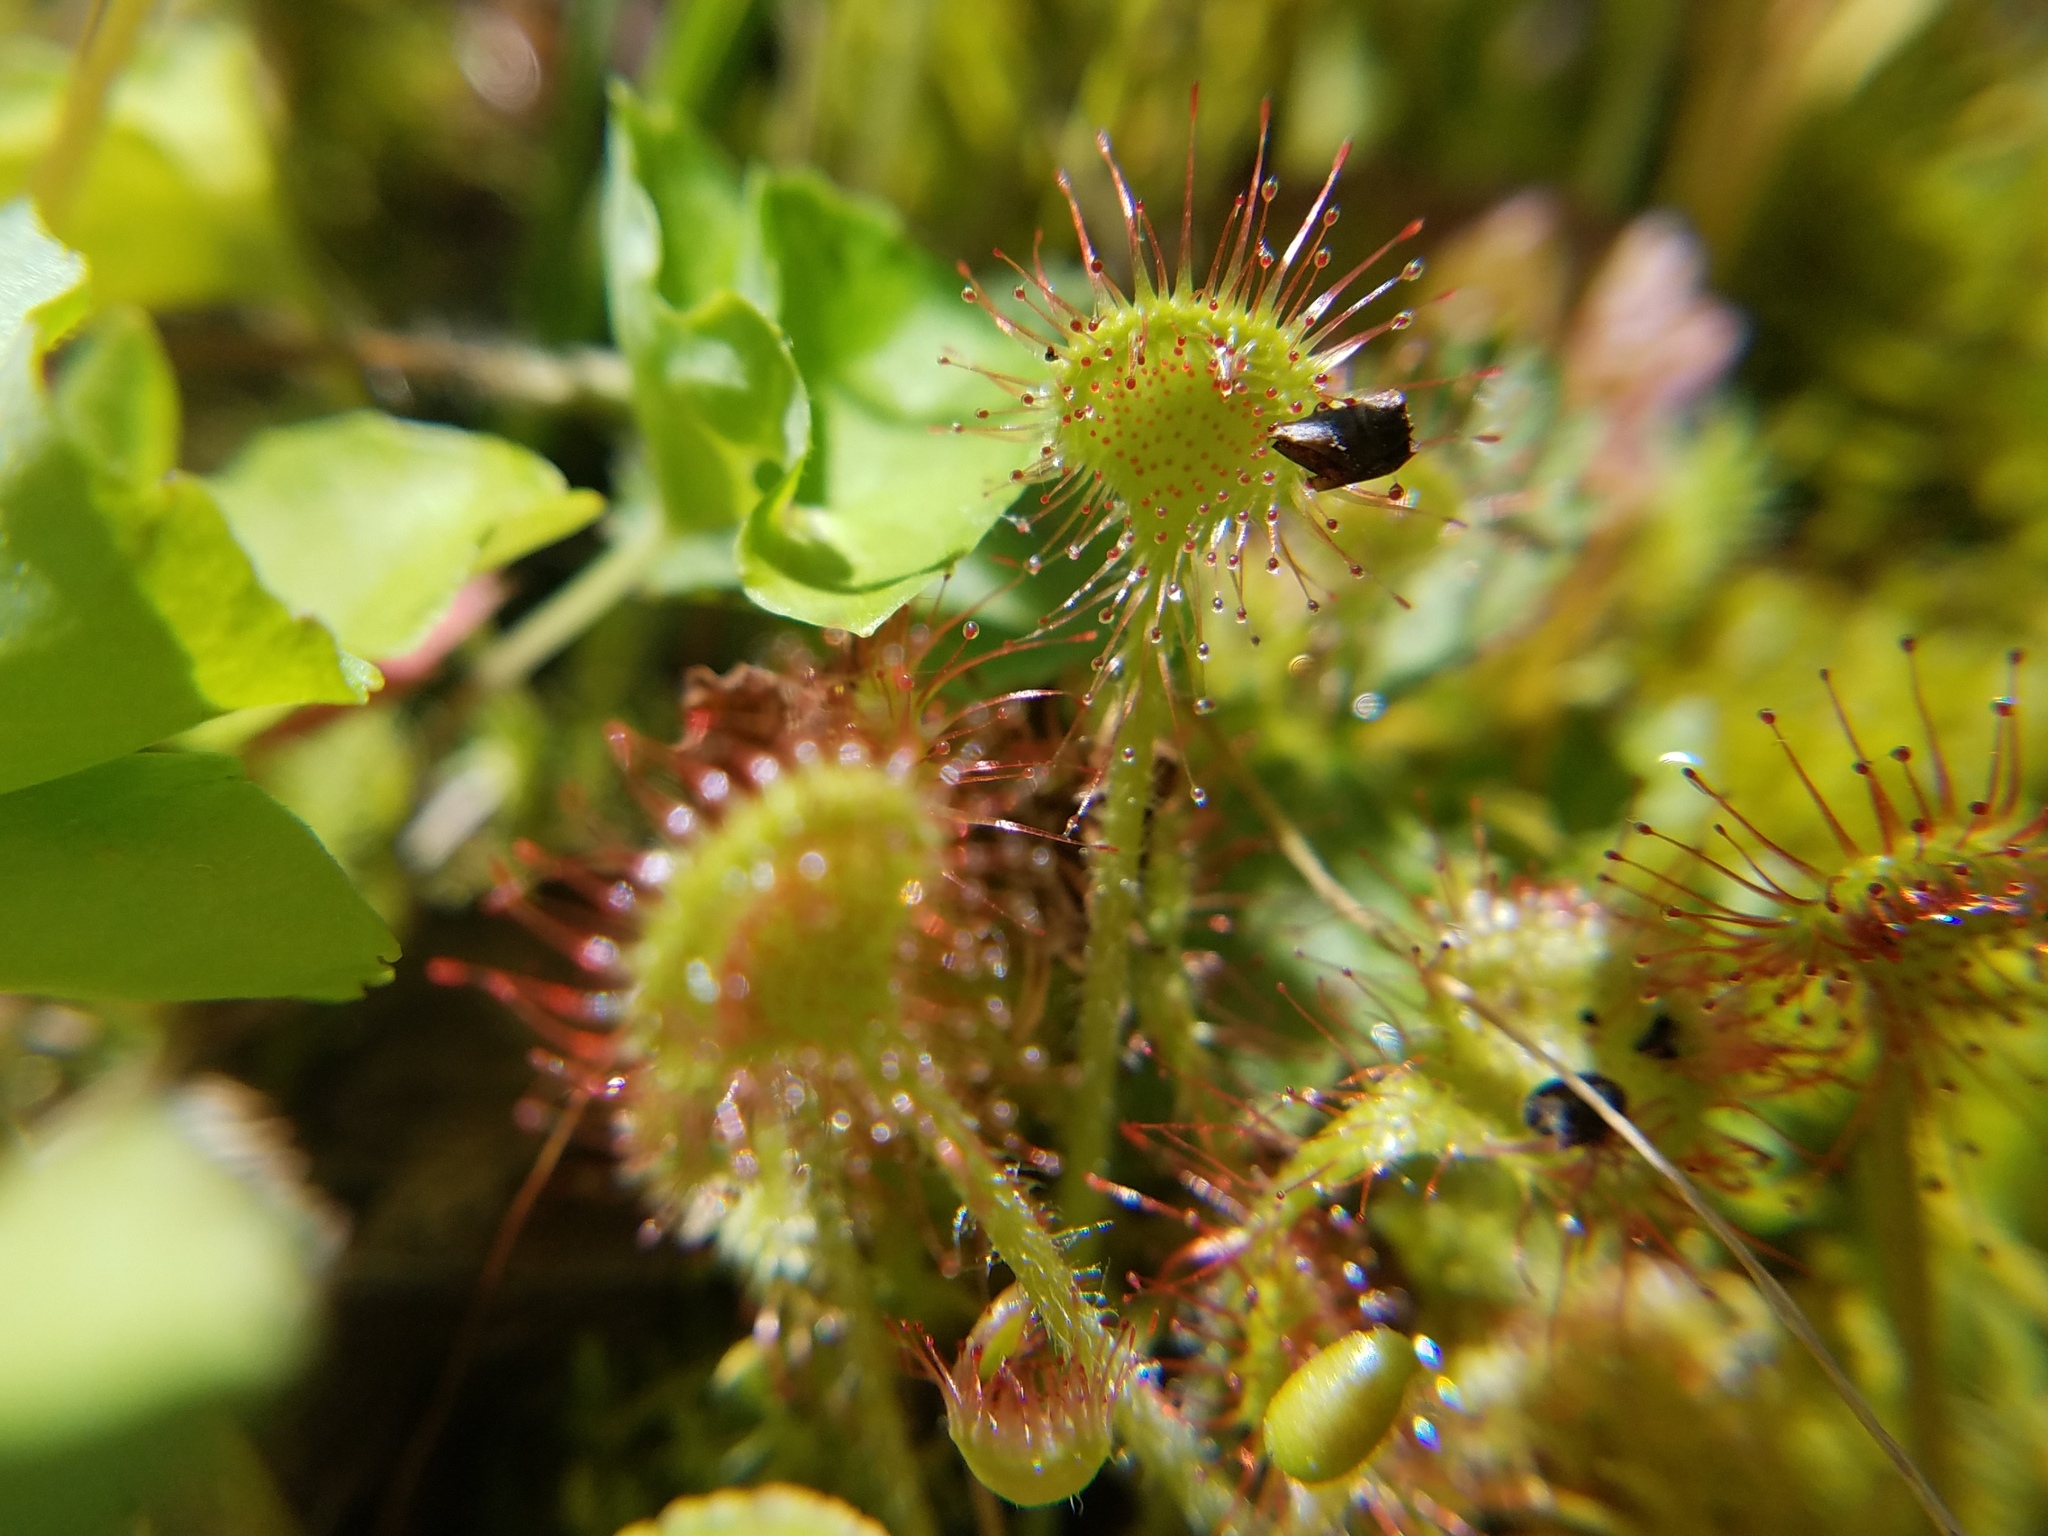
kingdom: Plantae
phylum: Tracheophyta
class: Magnoliopsida
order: Caryophyllales
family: Droseraceae
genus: Drosera
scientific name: Drosera rotundifolia
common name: Round-leaved sundew
